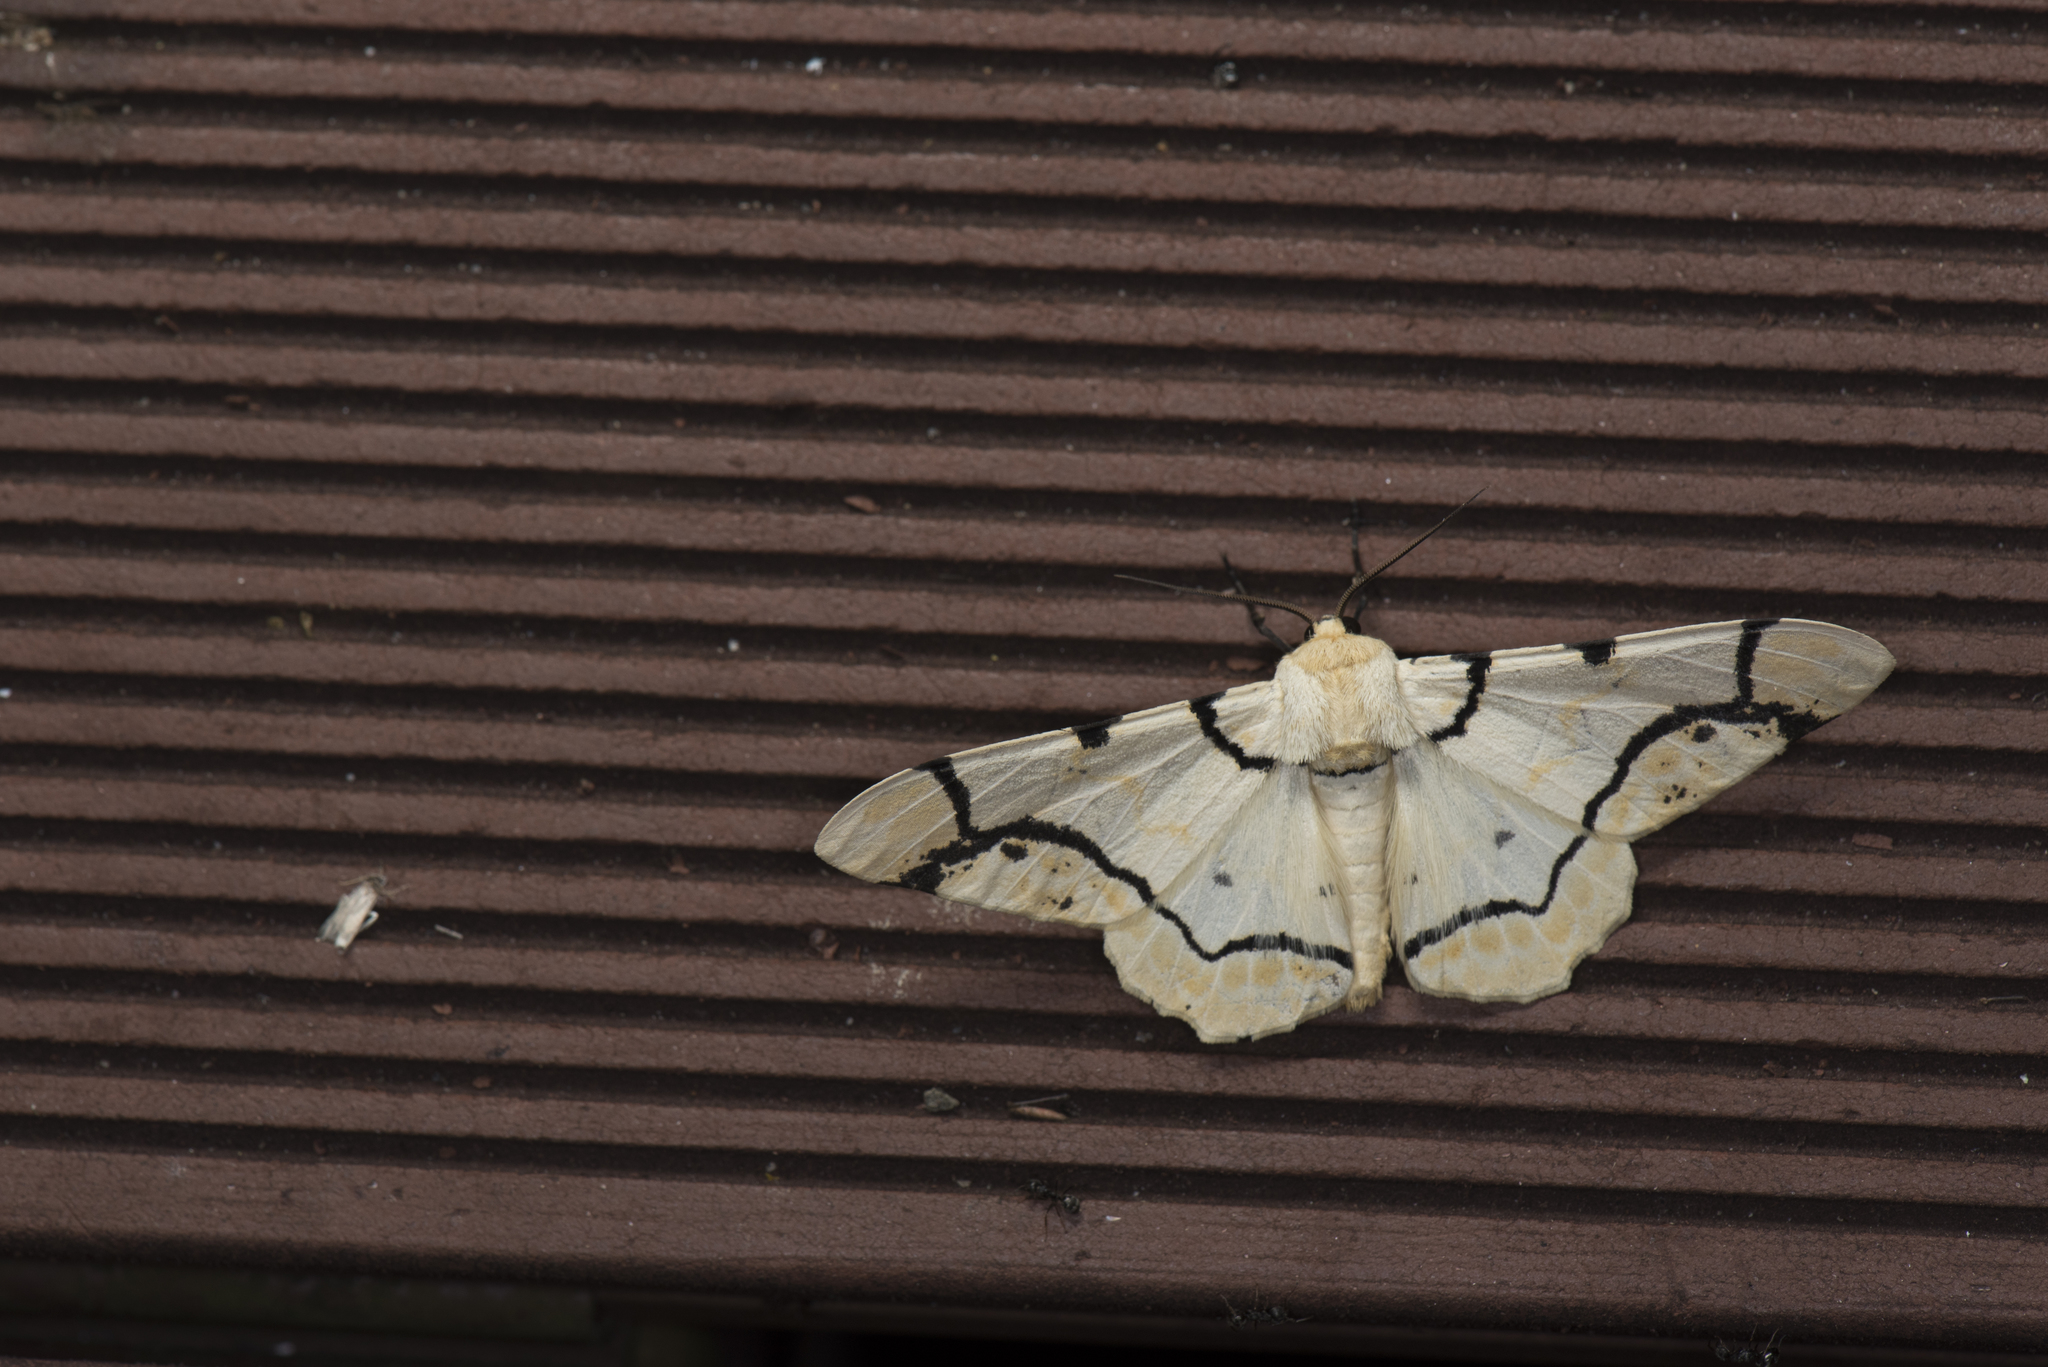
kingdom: Animalia
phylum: Arthropoda
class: Insecta
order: Lepidoptera
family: Geometridae
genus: Biston
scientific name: Biston perclara
